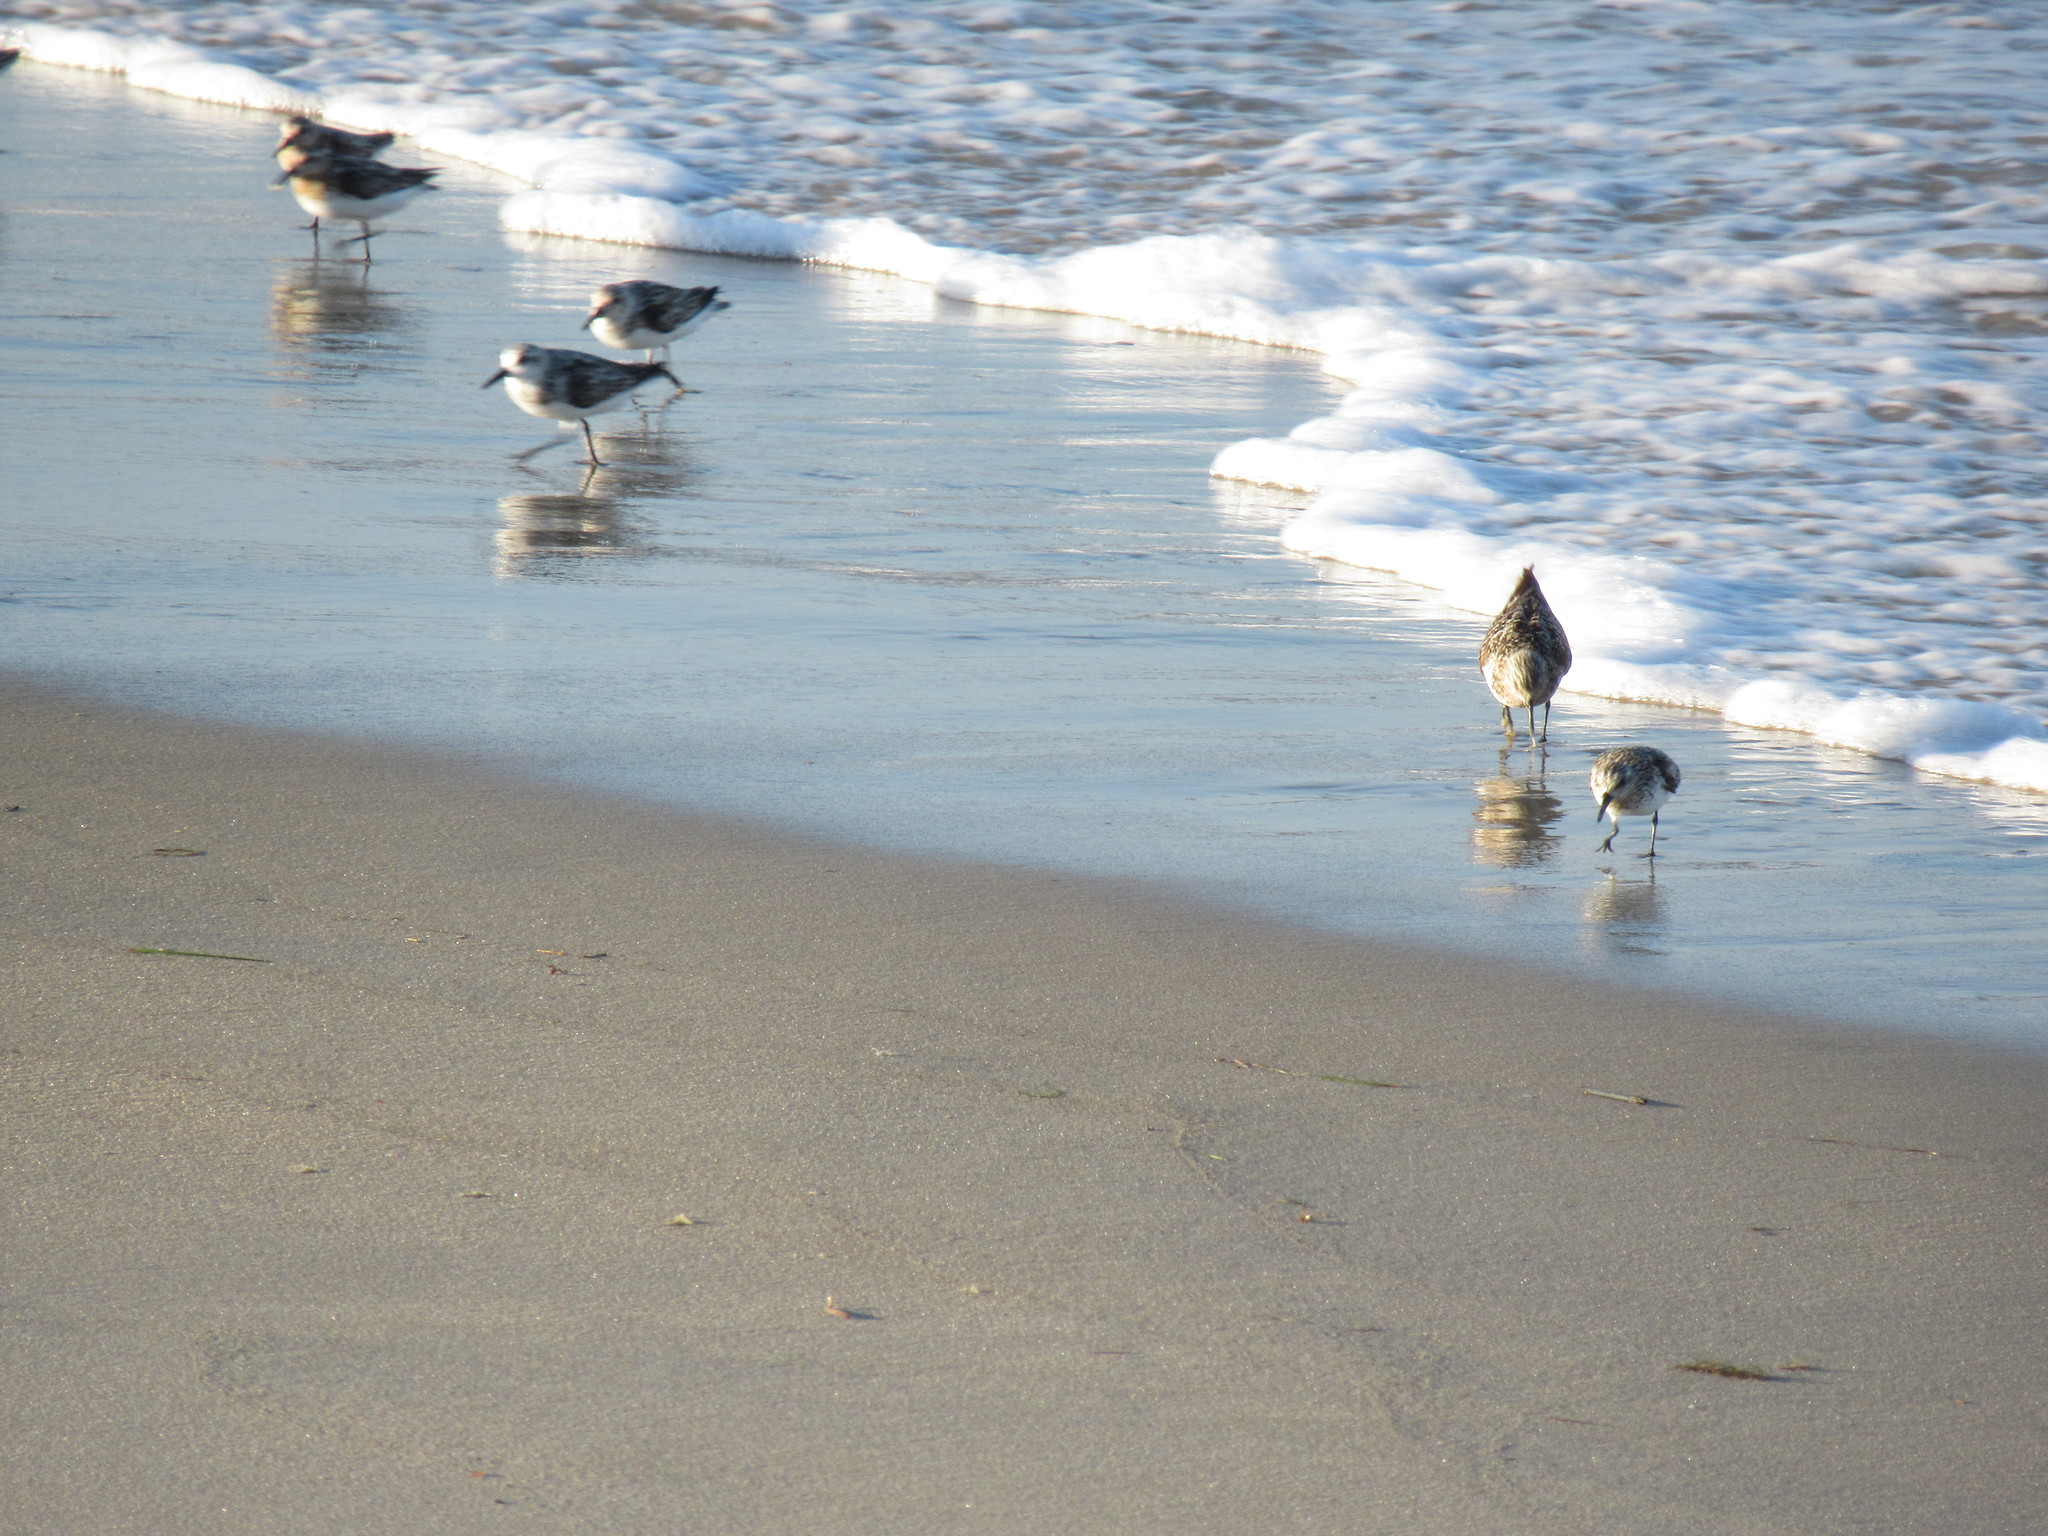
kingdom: Animalia
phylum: Chordata
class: Aves
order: Charadriiformes
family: Scolopacidae
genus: Calidris
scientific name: Calidris alba
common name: Sanderling
